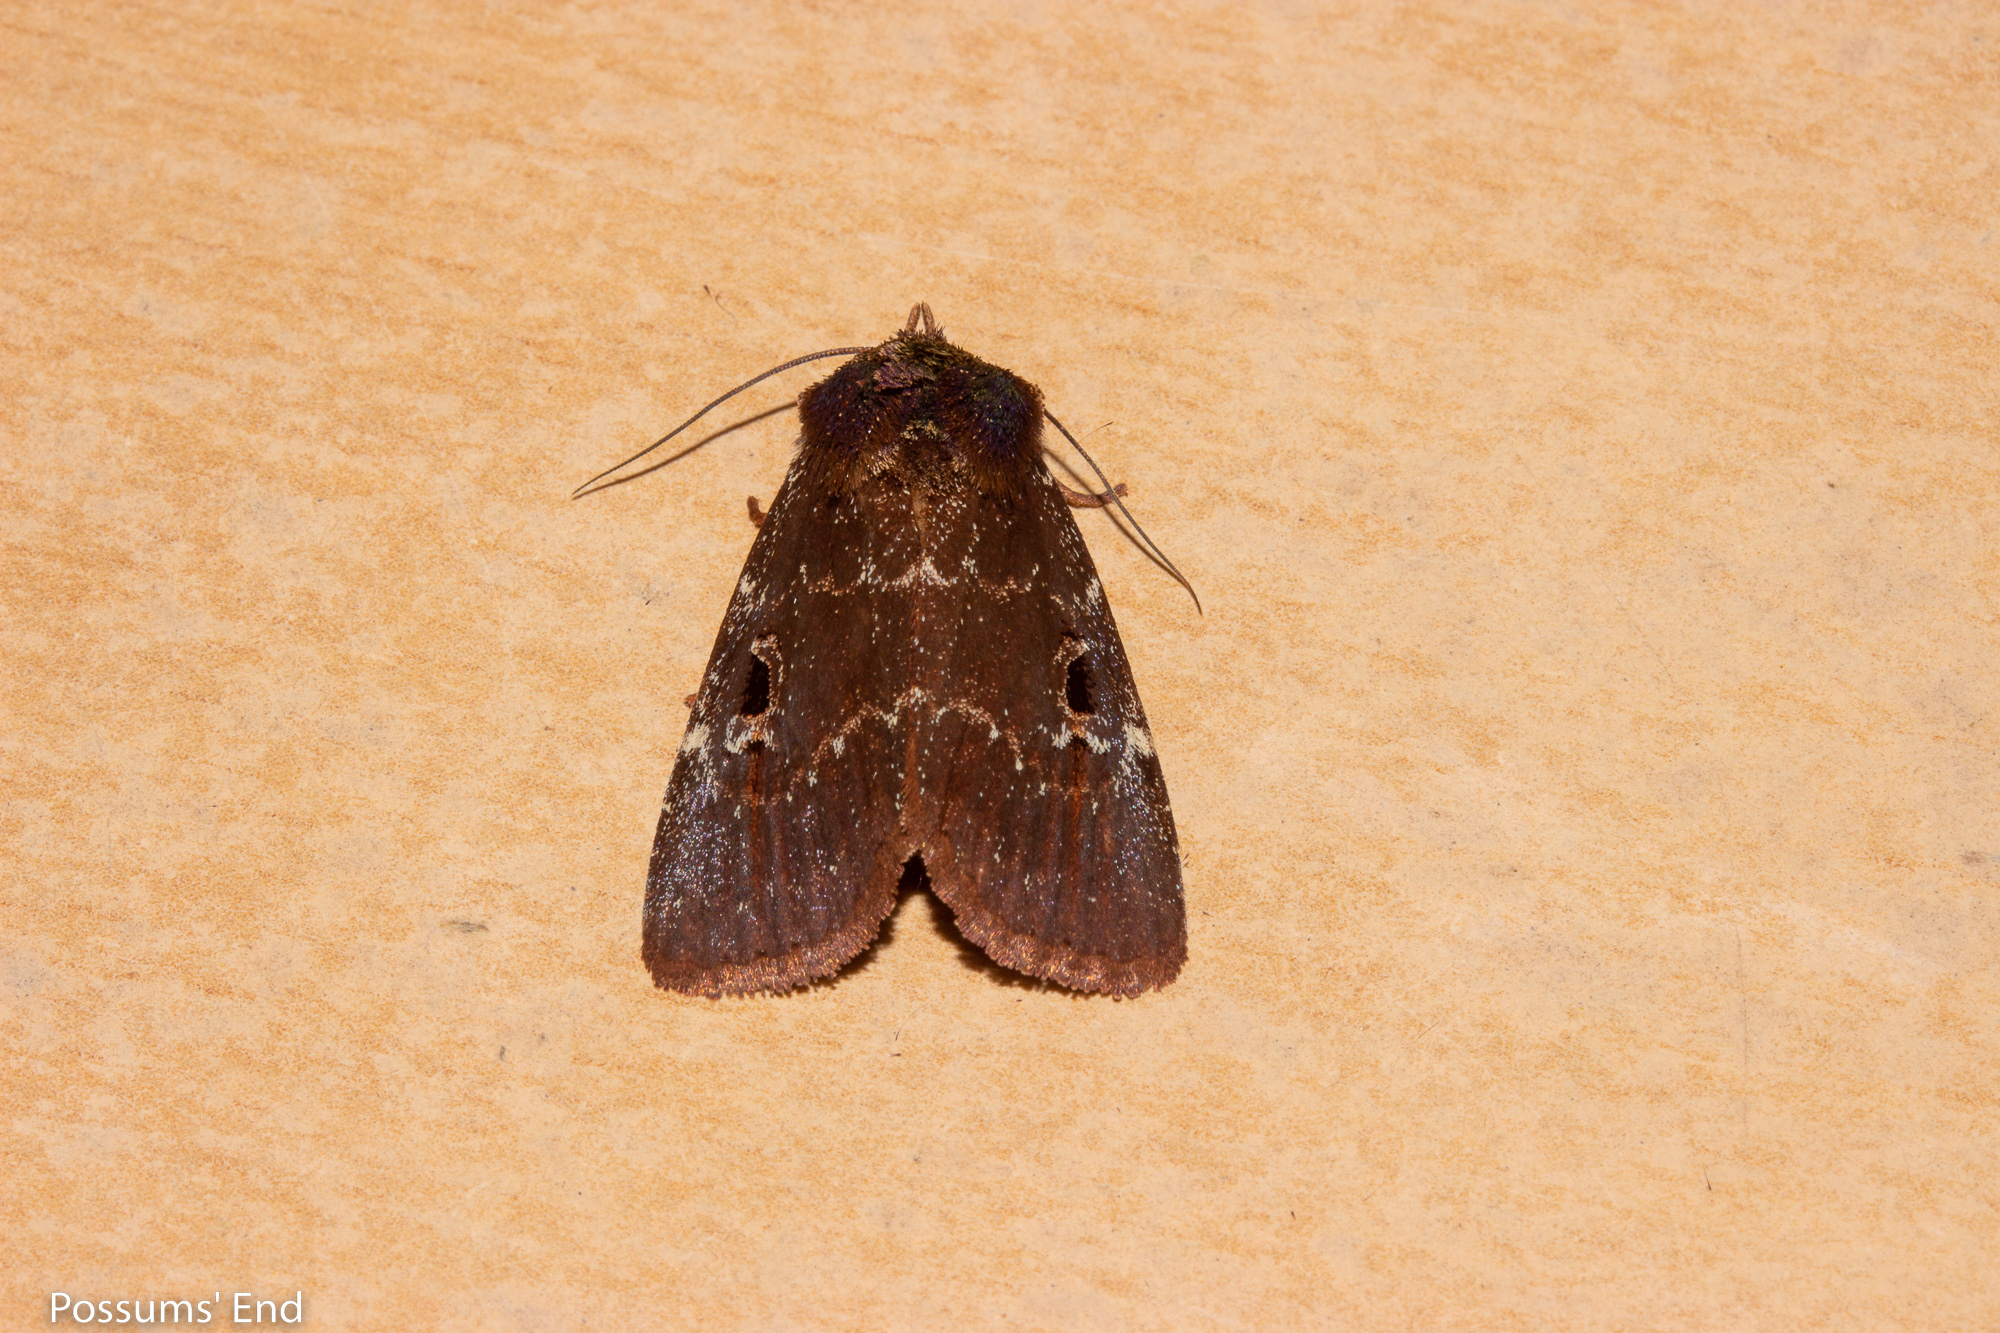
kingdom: Animalia
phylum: Arthropoda
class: Insecta
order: Lepidoptera
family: Noctuidae
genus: Austramathes
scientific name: Austramathes purpurea
